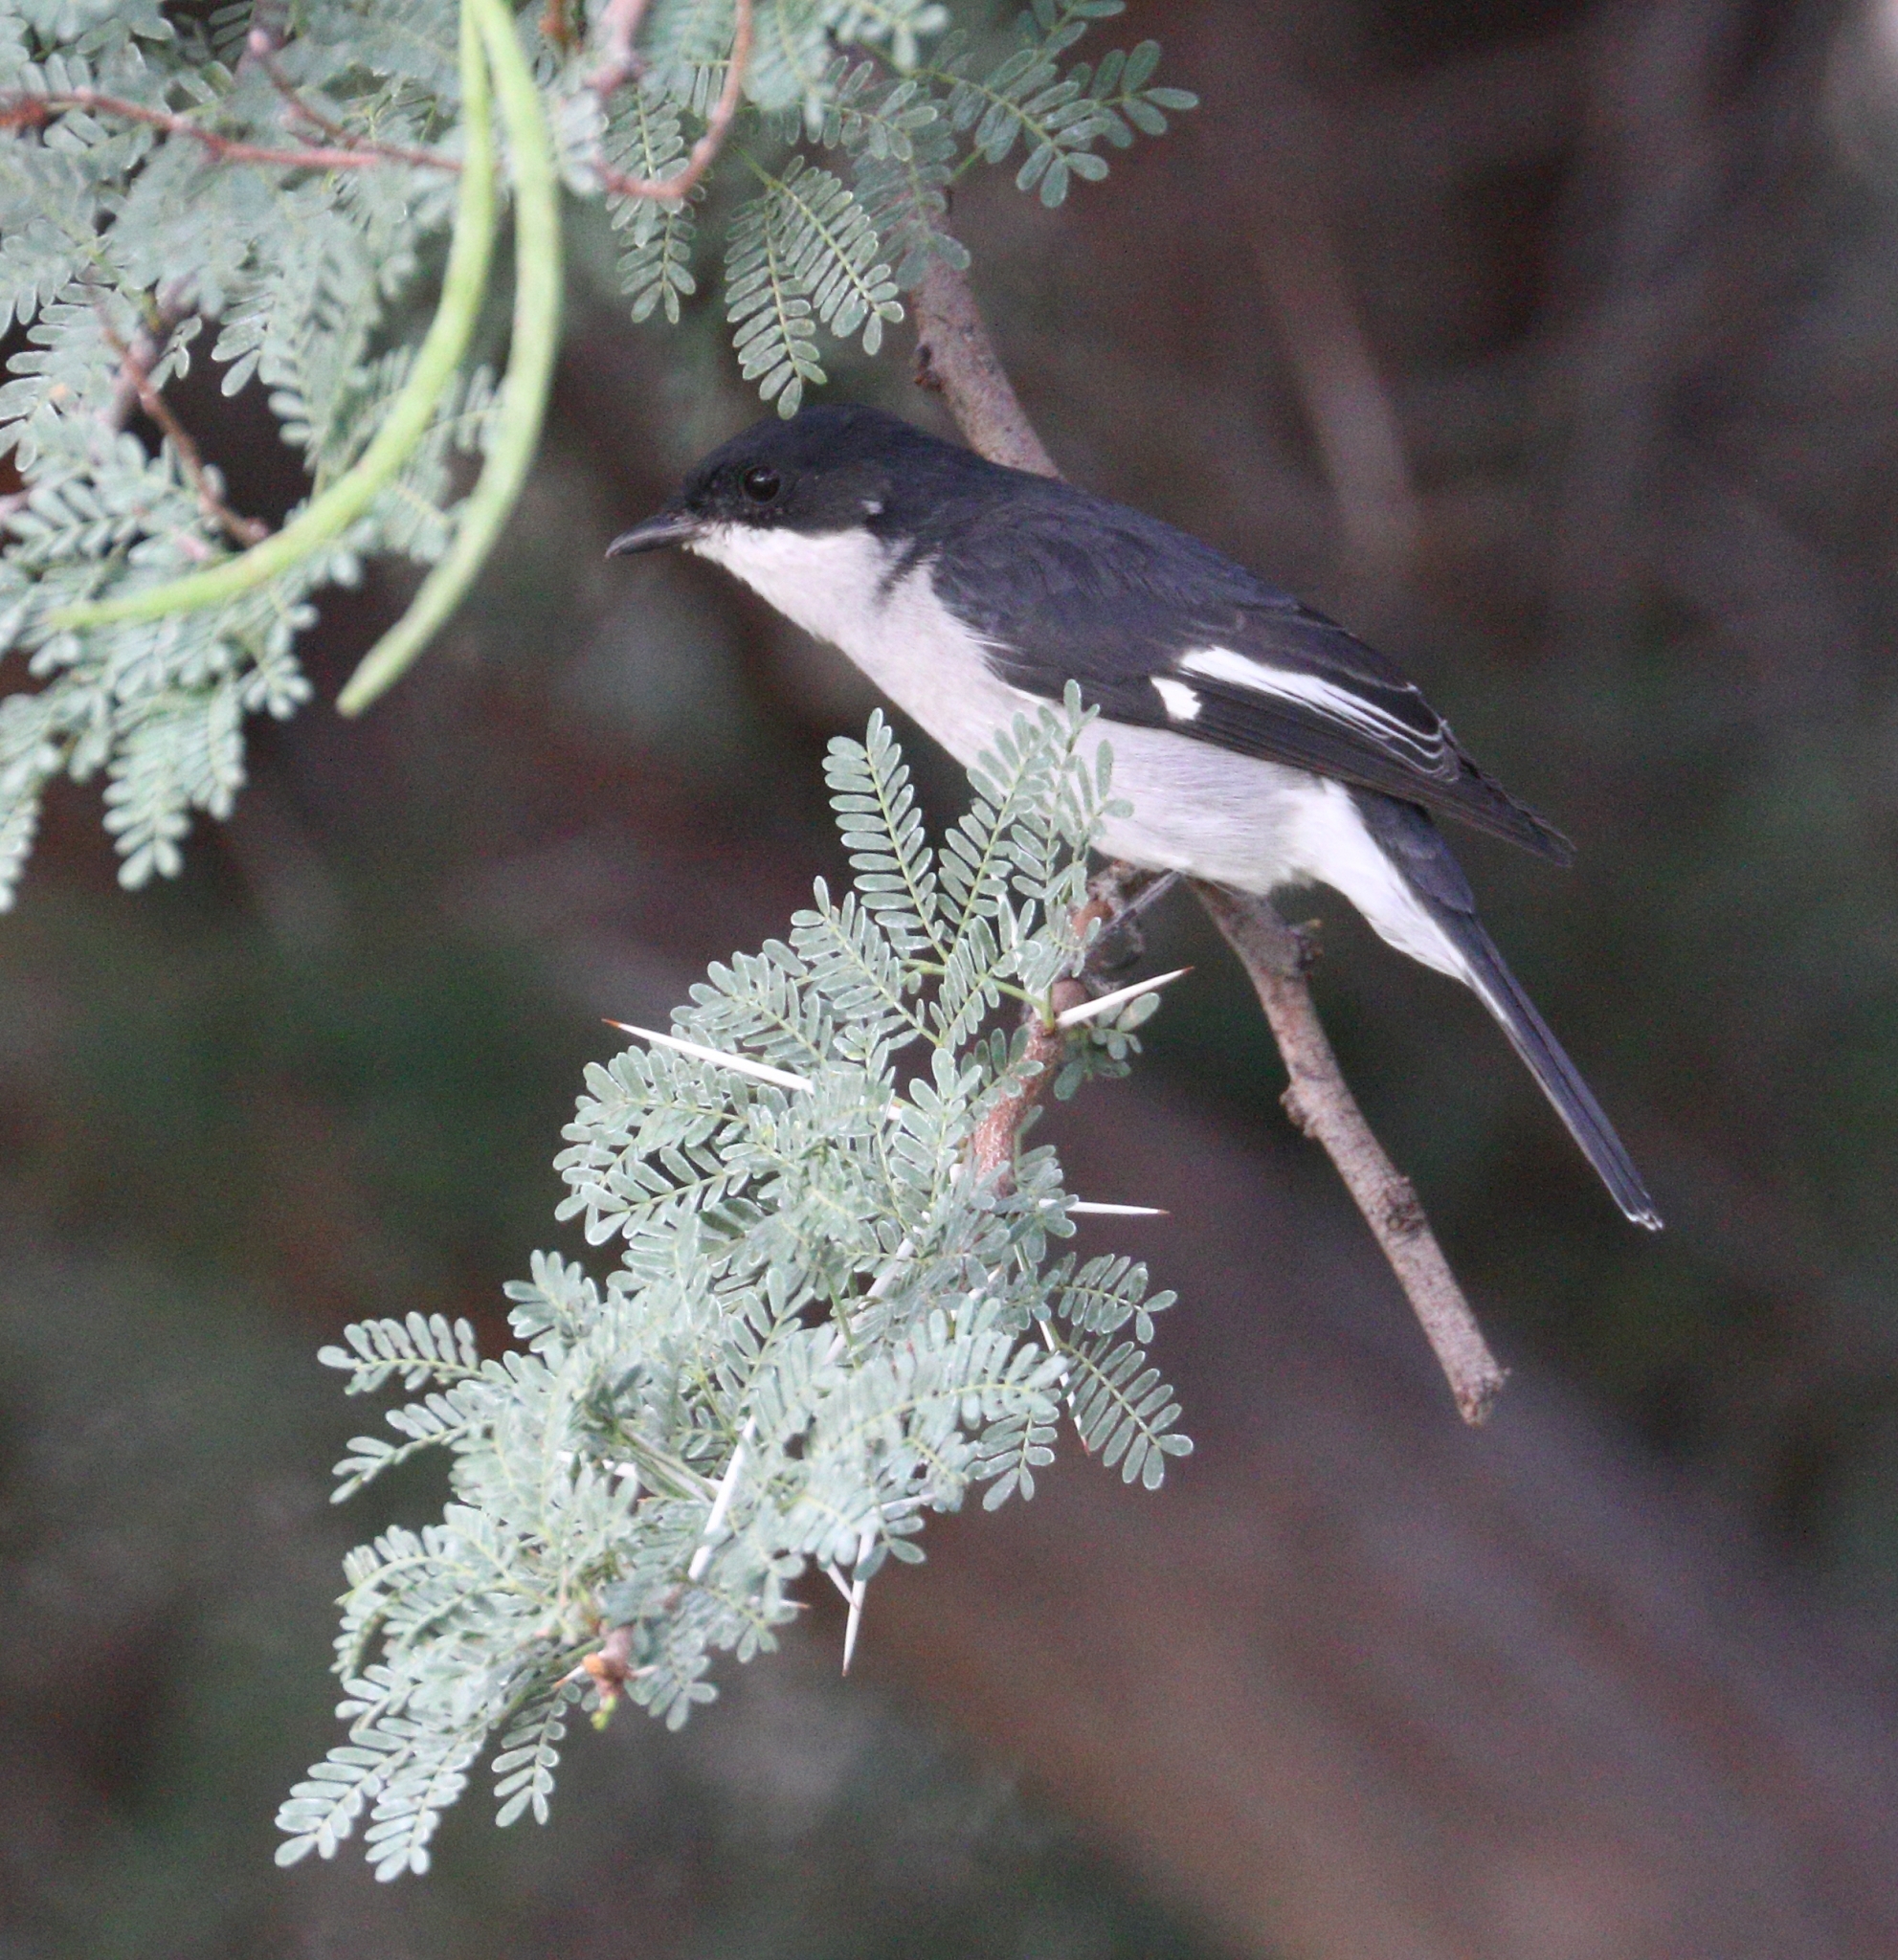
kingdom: Animalia
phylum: Chordata
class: Aves
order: Passeriformes
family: Muscicapidae
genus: Sigelus
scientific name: Sigelus silens
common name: Fiscal flycatcher
